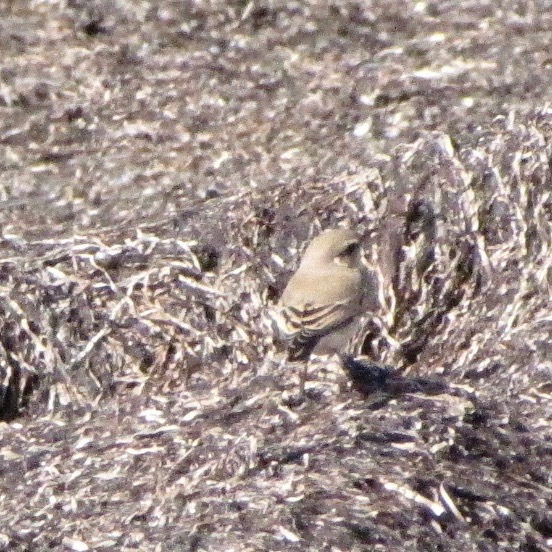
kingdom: Animalia
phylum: Chordata
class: Aves
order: Passeriformes
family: Muscicapidae
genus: Oenanthe
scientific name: Oenanthe oenanthe
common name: Northern wheatear
